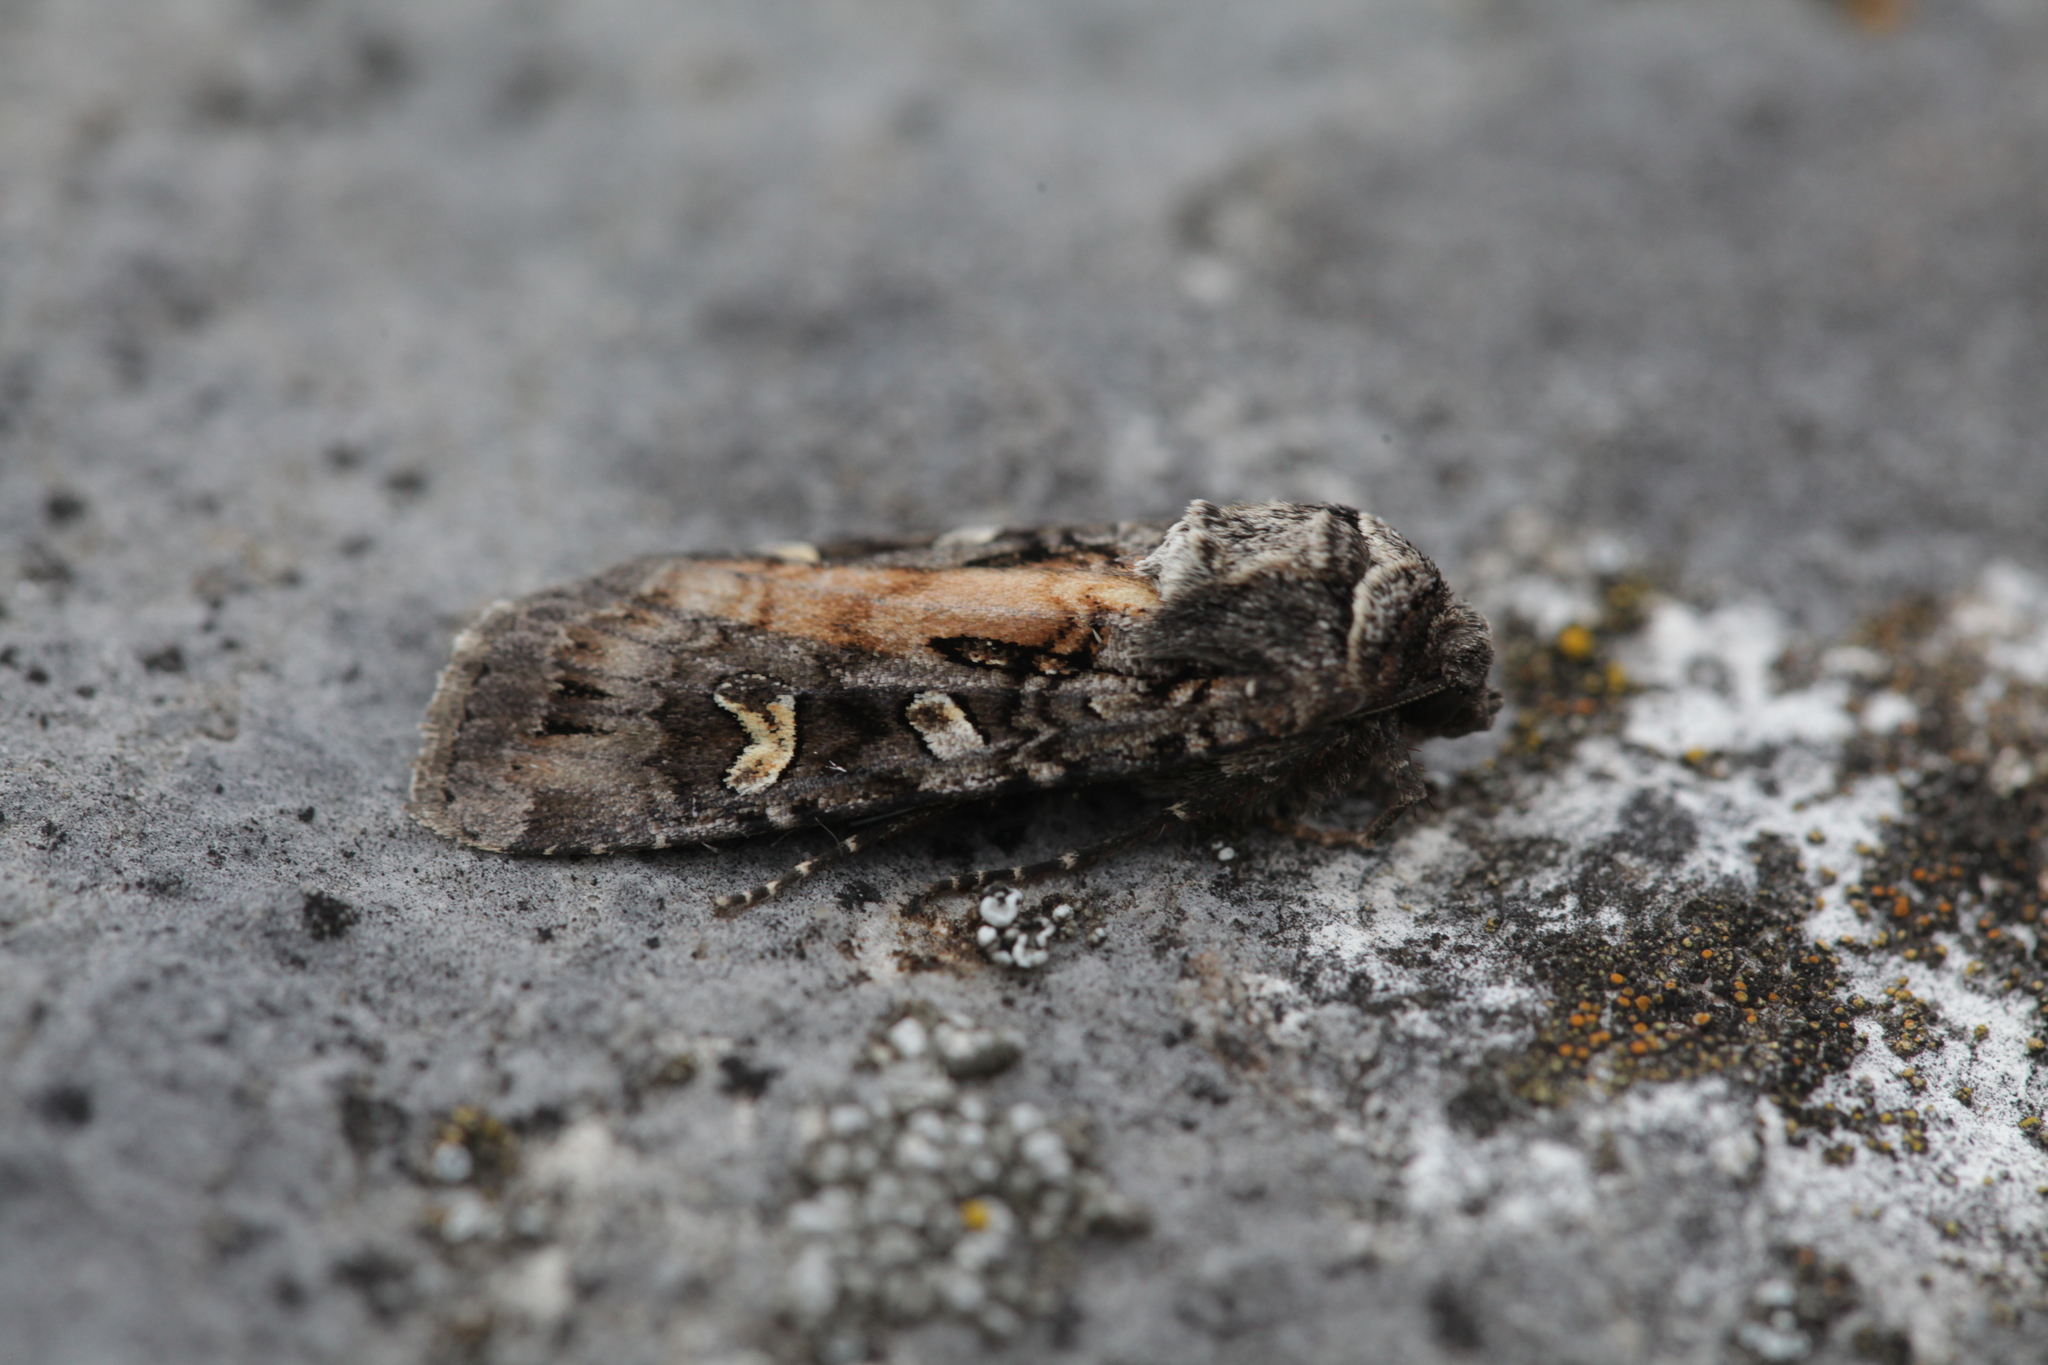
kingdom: Animalia
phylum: Arthropoda
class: Insecta
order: Lepidoptera
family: Noctuidae
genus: Actebia
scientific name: Actebia fennica
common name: Eversmann's rustic
